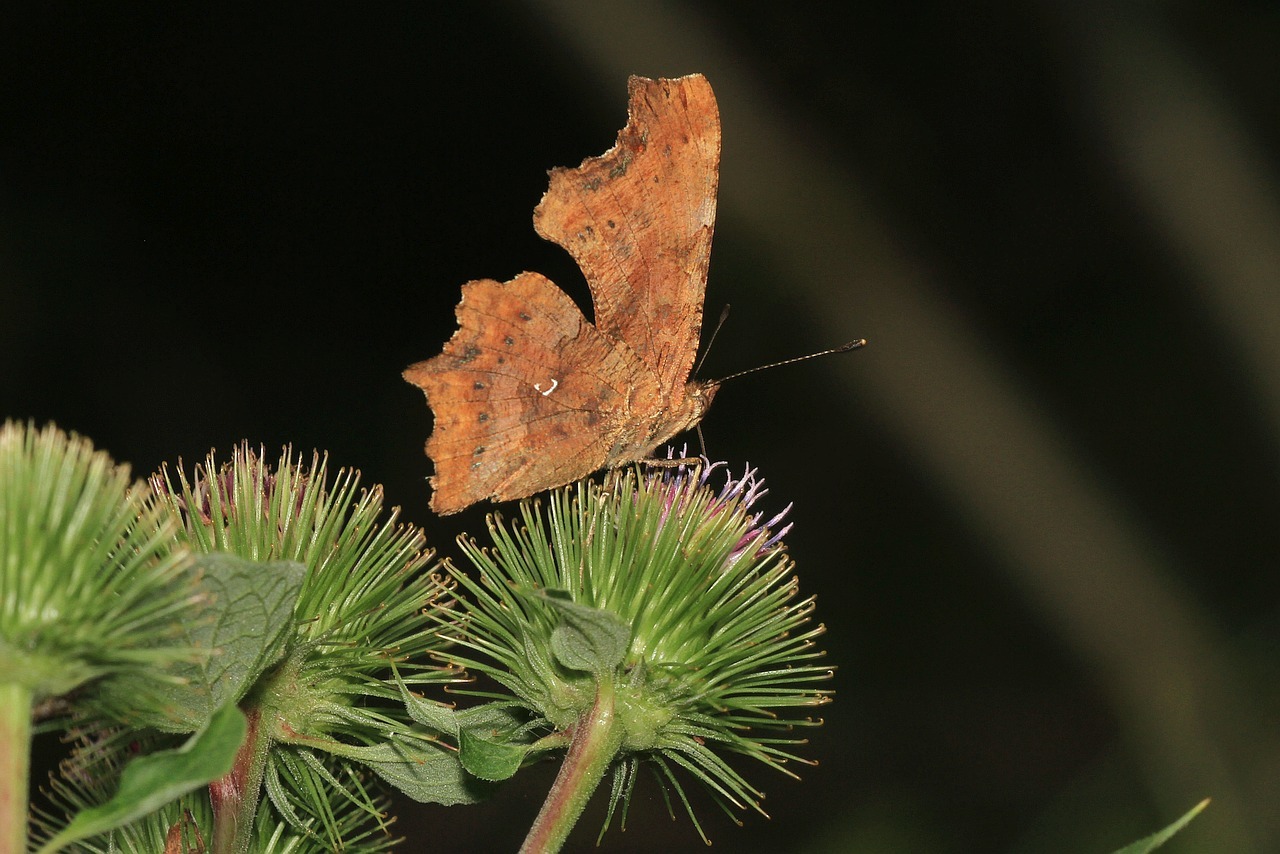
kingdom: Animalia
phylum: Arthropoda
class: Insecta
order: Lepidoptera
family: Nymphalidae
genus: Polygonia
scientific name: Polygonia c-album
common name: Comma
